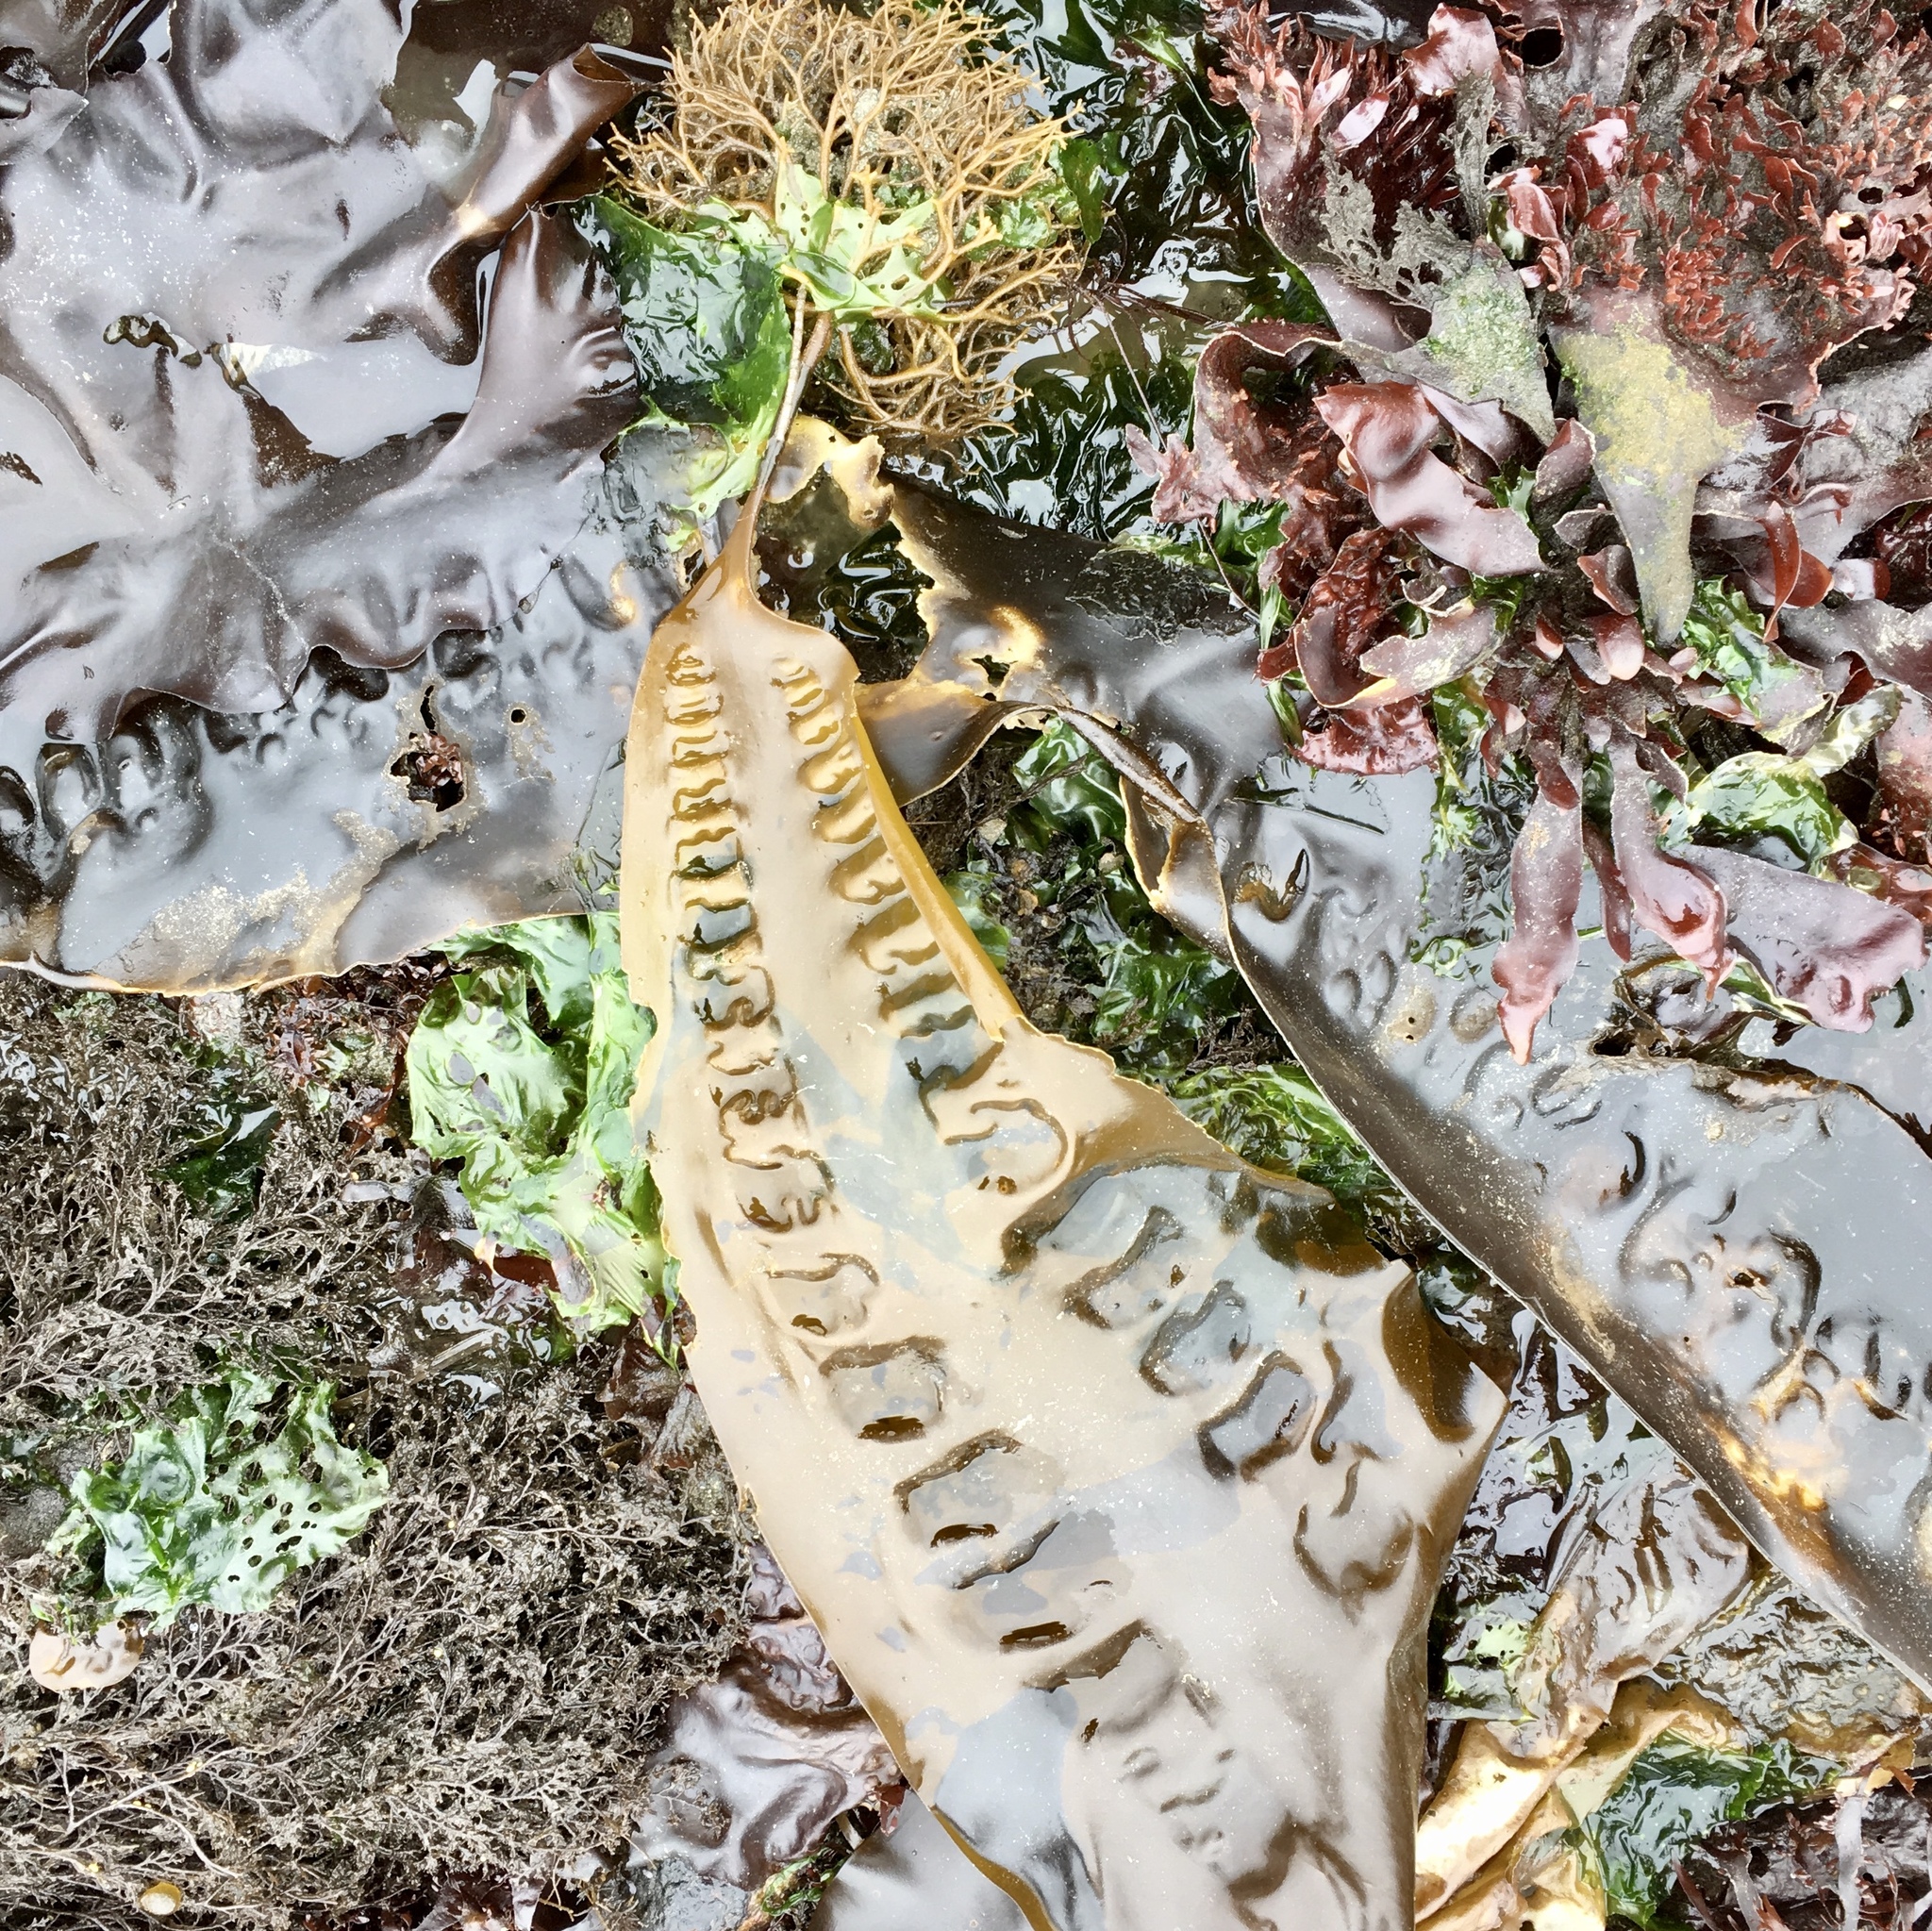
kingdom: Chromista
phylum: Ochrophyta
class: Phaeophyceae
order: Laminariales
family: Laminariaceae
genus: Saccharina
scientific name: Saccharina latissima
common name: Poor man's weather glass
